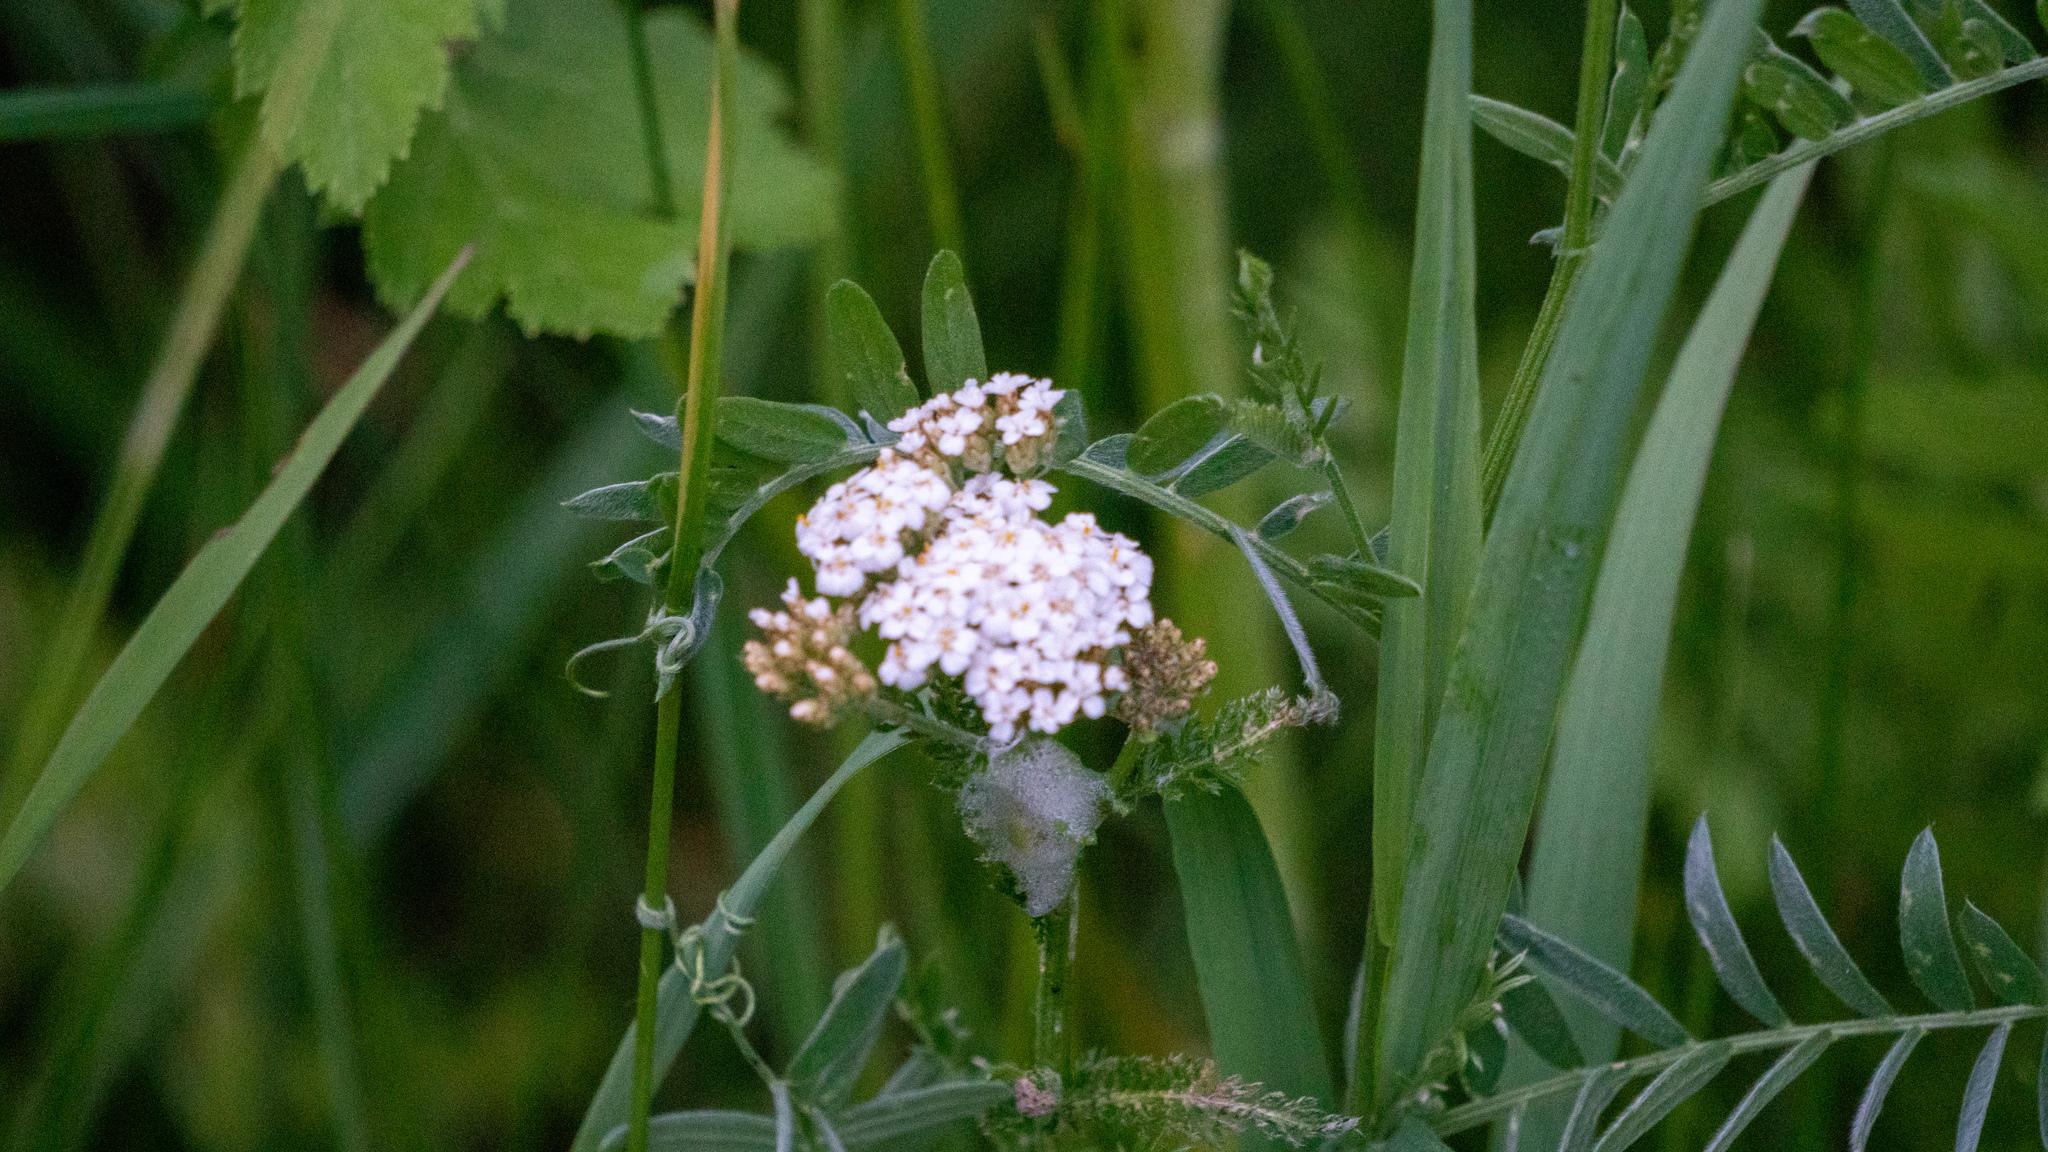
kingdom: Plantae
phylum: Tracheophyta
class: Magnoliopsida
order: Asterales
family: Asteraceae
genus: Achillea
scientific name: Achillea millefolium
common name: Yarrow
